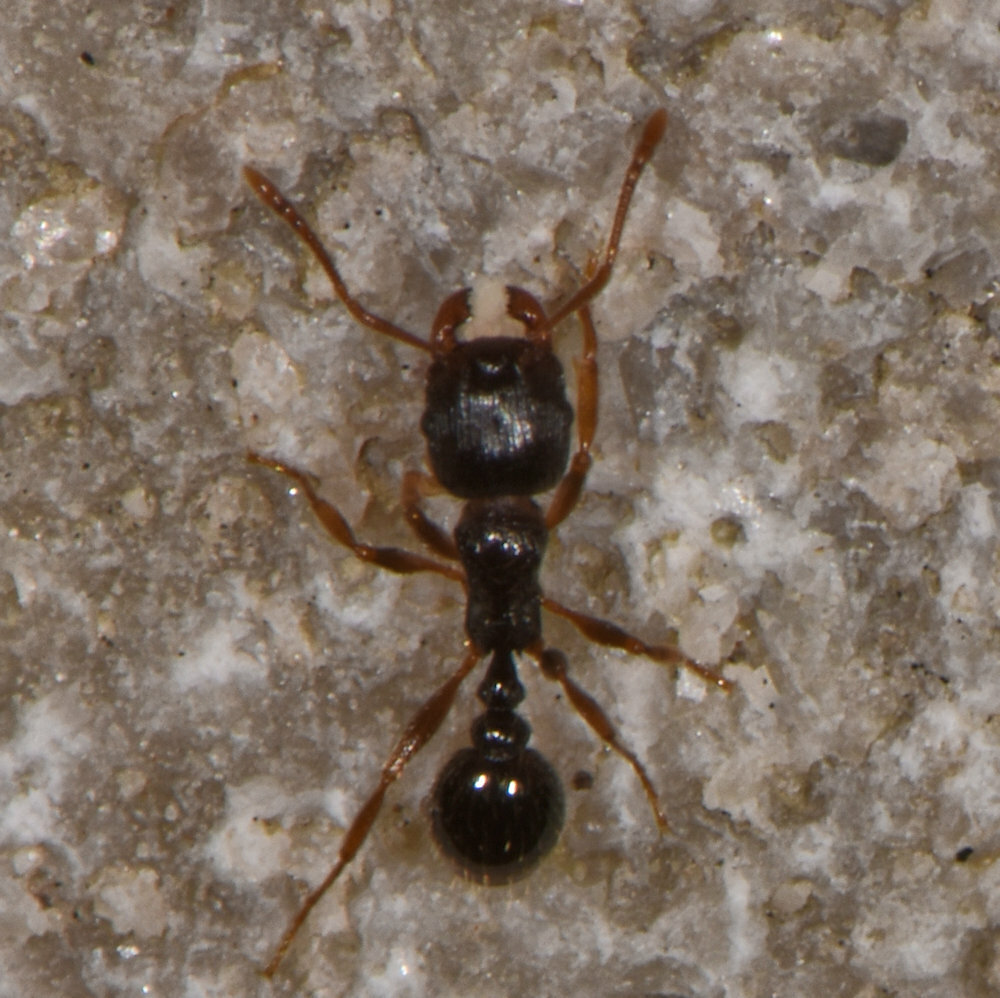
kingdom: Animalia
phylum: Arthropoda
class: Insecta
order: Hymenoptera
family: Formicidae
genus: Tetramorium
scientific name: Tetramorium immigrans
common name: Pavement ant
